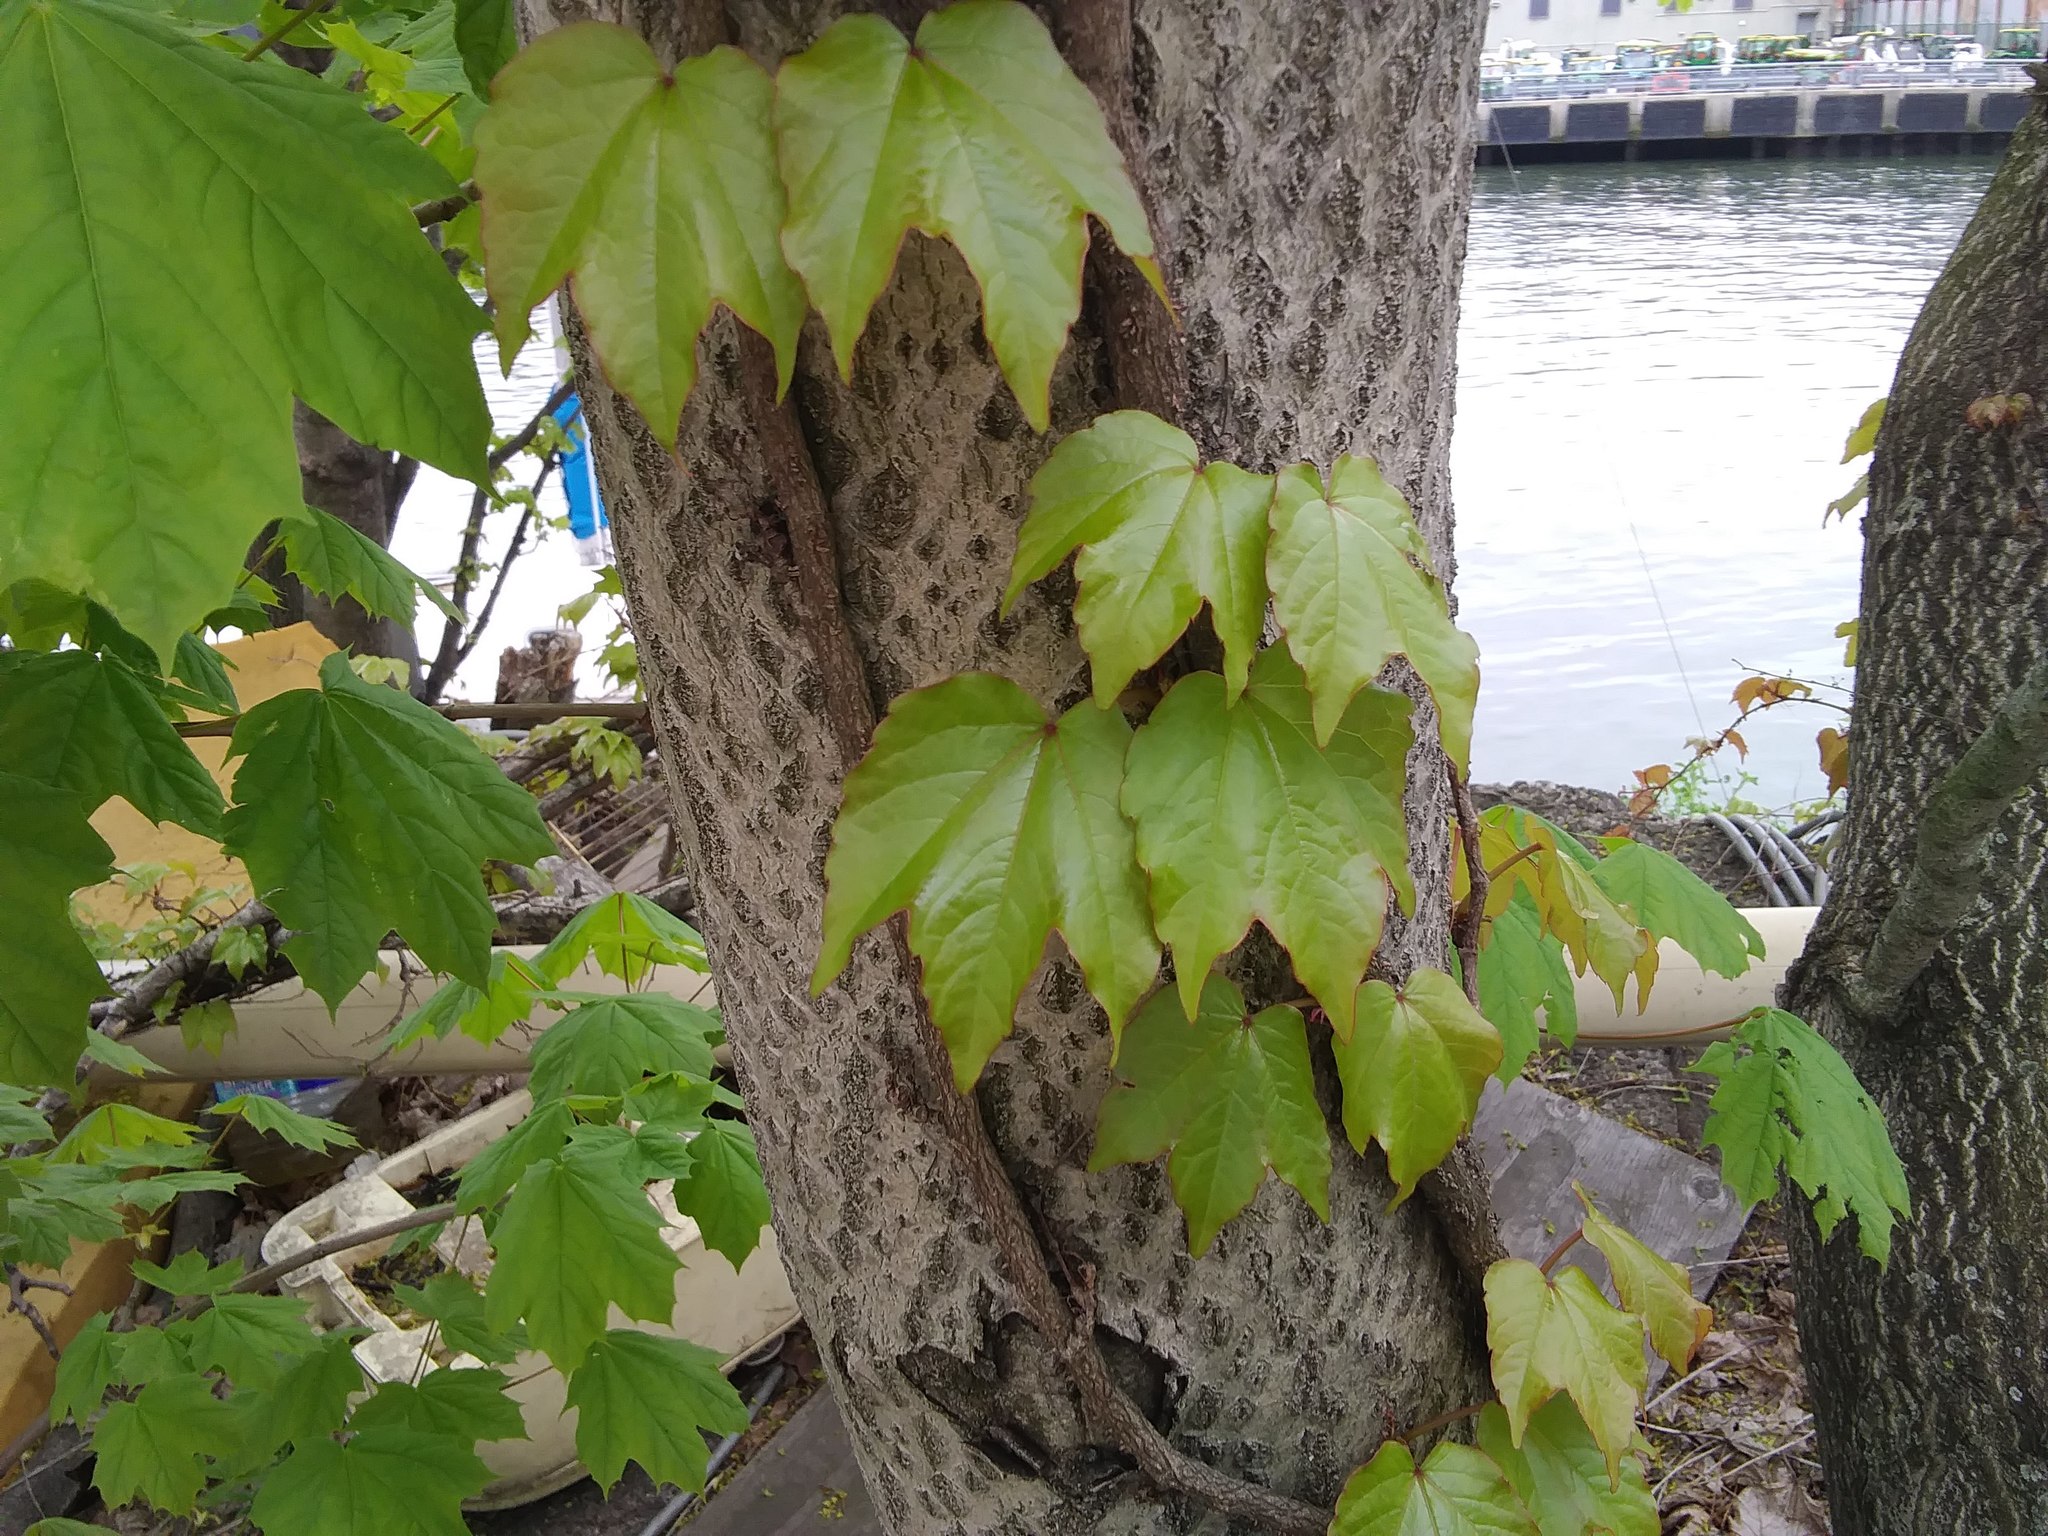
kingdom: Plantae
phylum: Tracheophyta
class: Magnoliopsida
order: Vitales
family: Vitaceae
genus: Parthenocissus
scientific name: Parthenocissus tricuspidata
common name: Boston ivy
